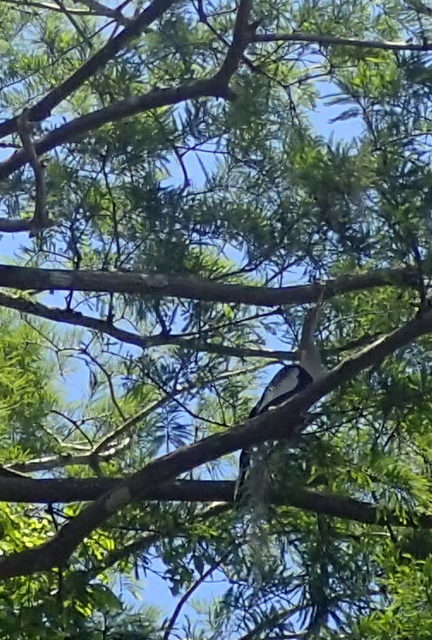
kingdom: Animalia
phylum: Chordata
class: Aves
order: Suliformes
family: Anhingidae
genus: Anhinga
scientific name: Anhinga anhinga
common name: Anhinga
